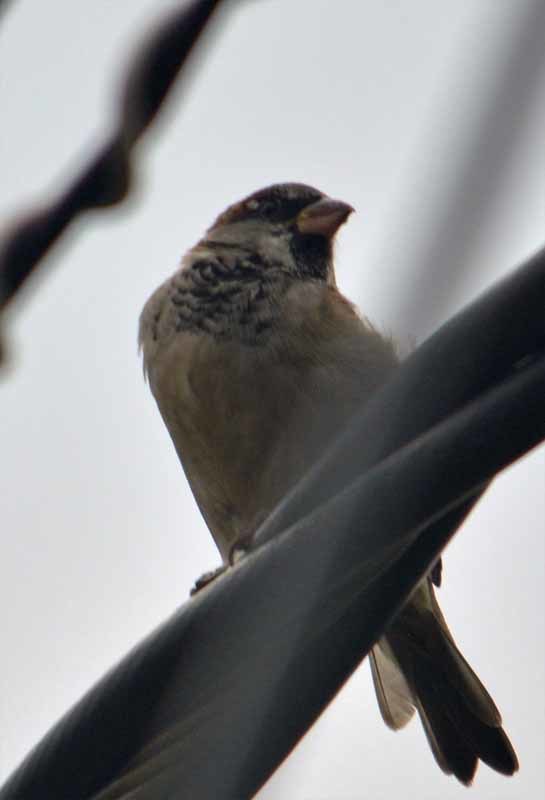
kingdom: Animalia
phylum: Chordata
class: Aves
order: Passeriformes
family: Passeridae
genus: Passer
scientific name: Passer domesticus
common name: House sparrow
